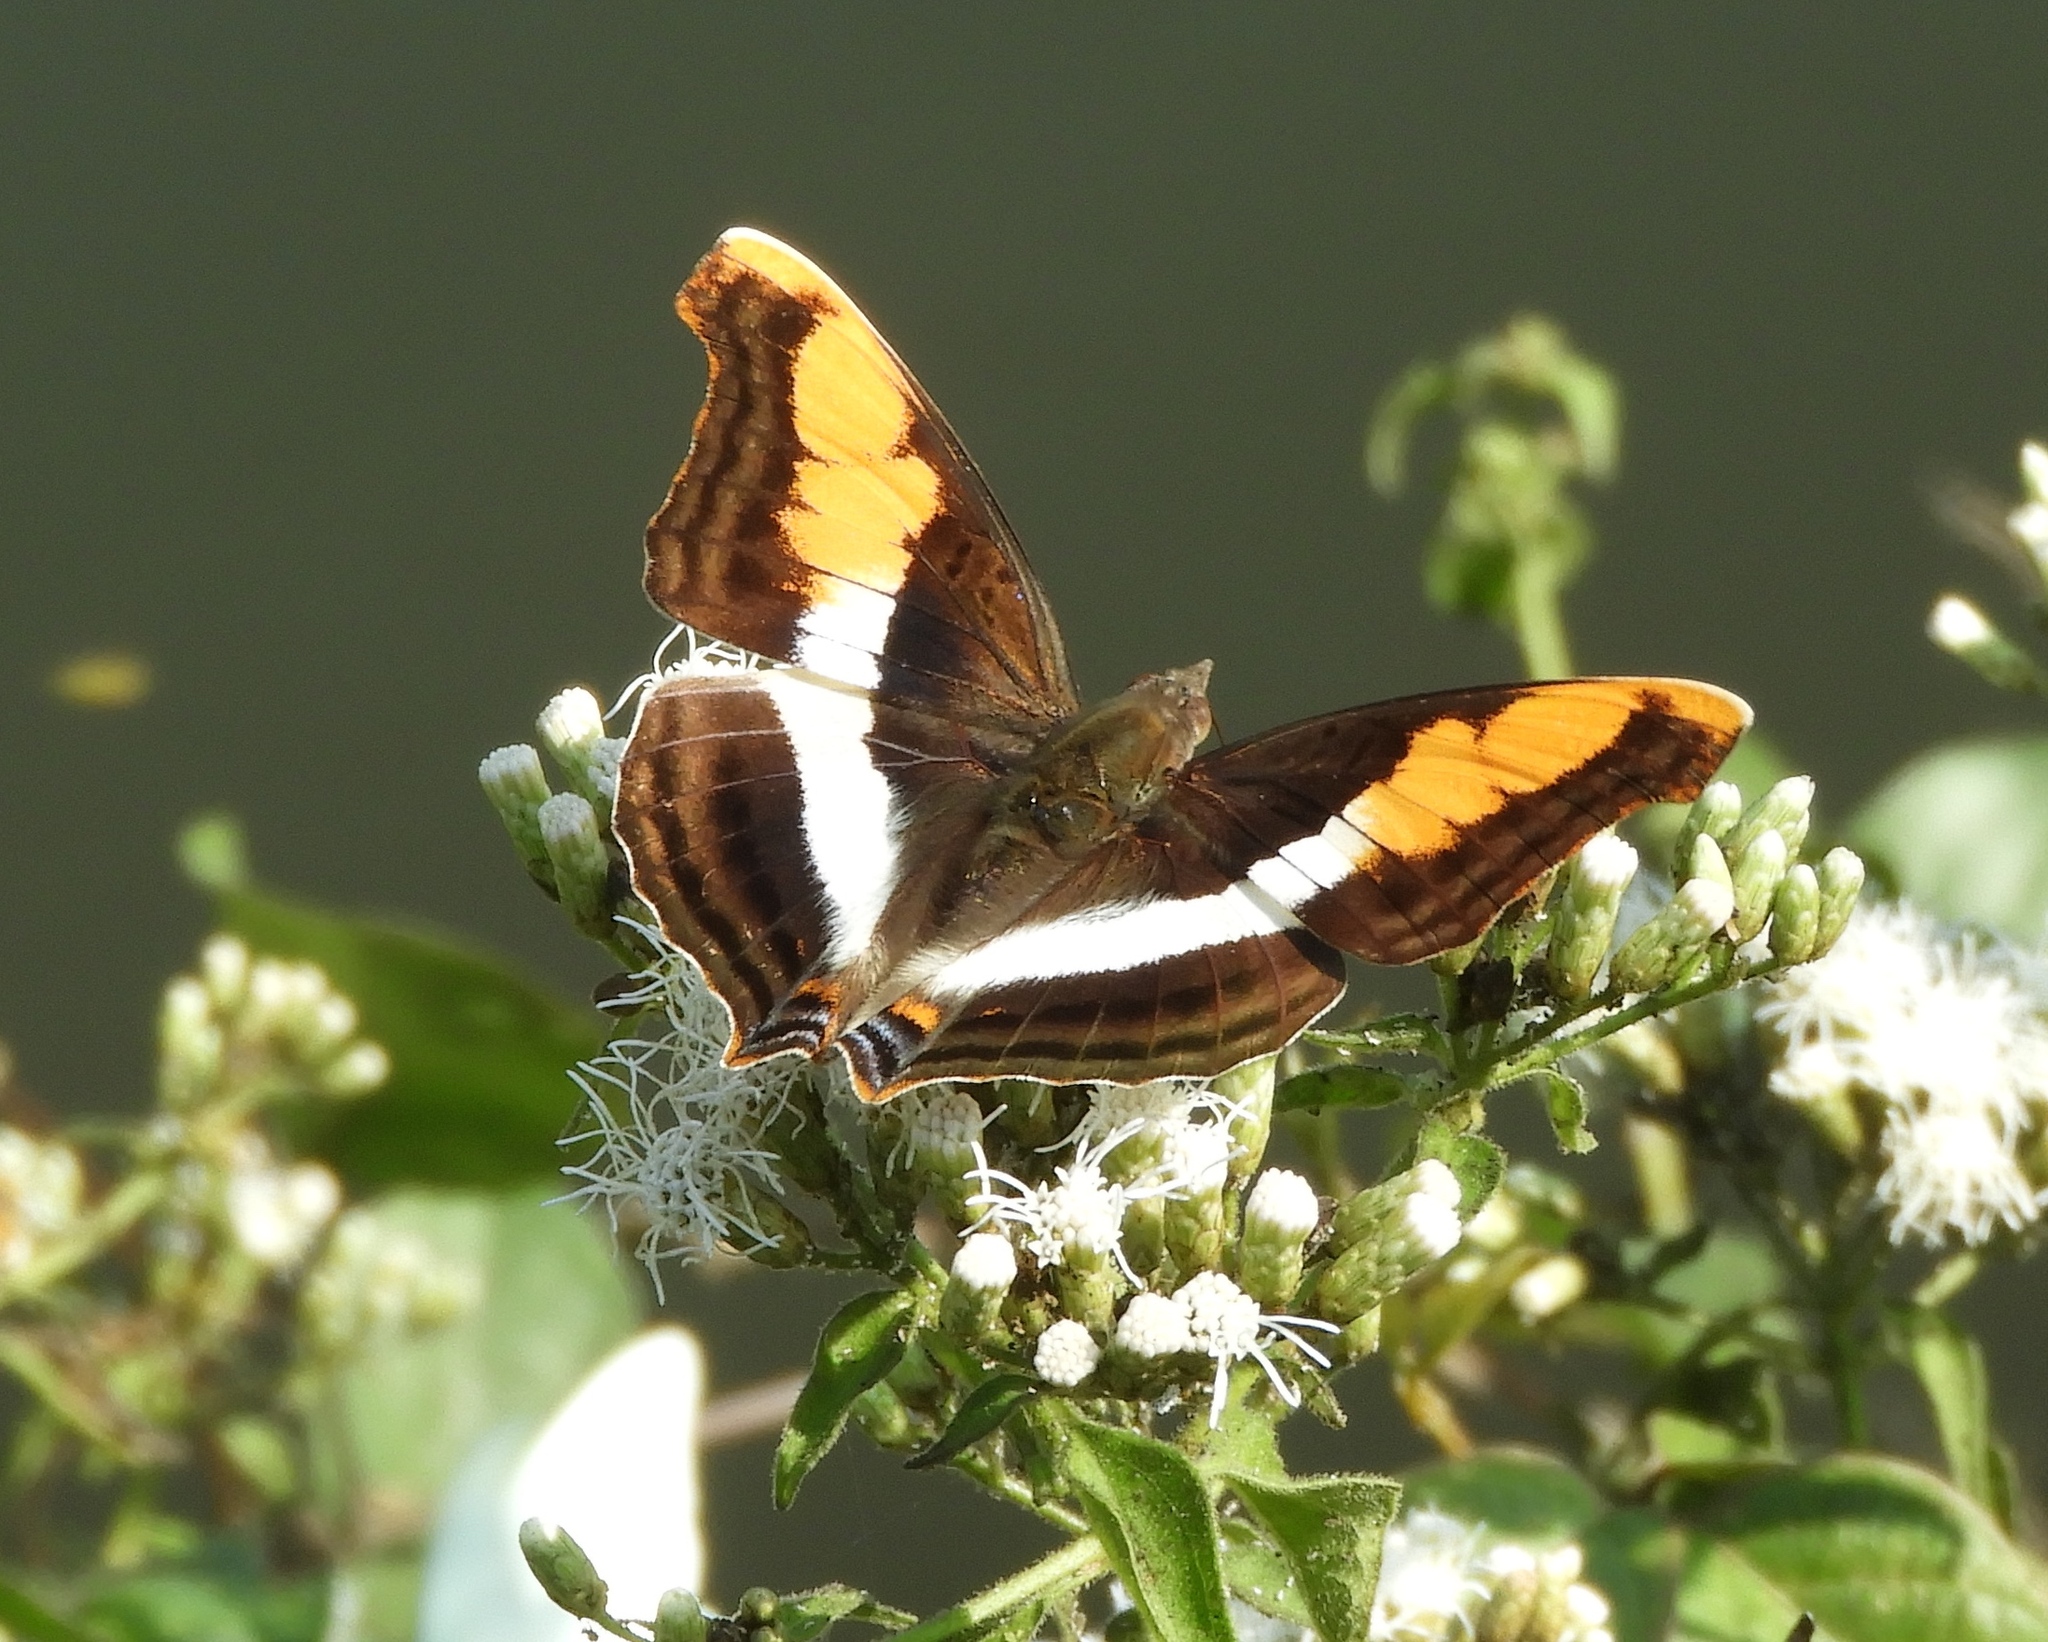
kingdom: Animalia
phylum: Arthropoda
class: Insecta
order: Lepidoptera
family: Nymphalidae
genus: Doxocopa
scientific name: Doxocopa laure
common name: Silver emperor
